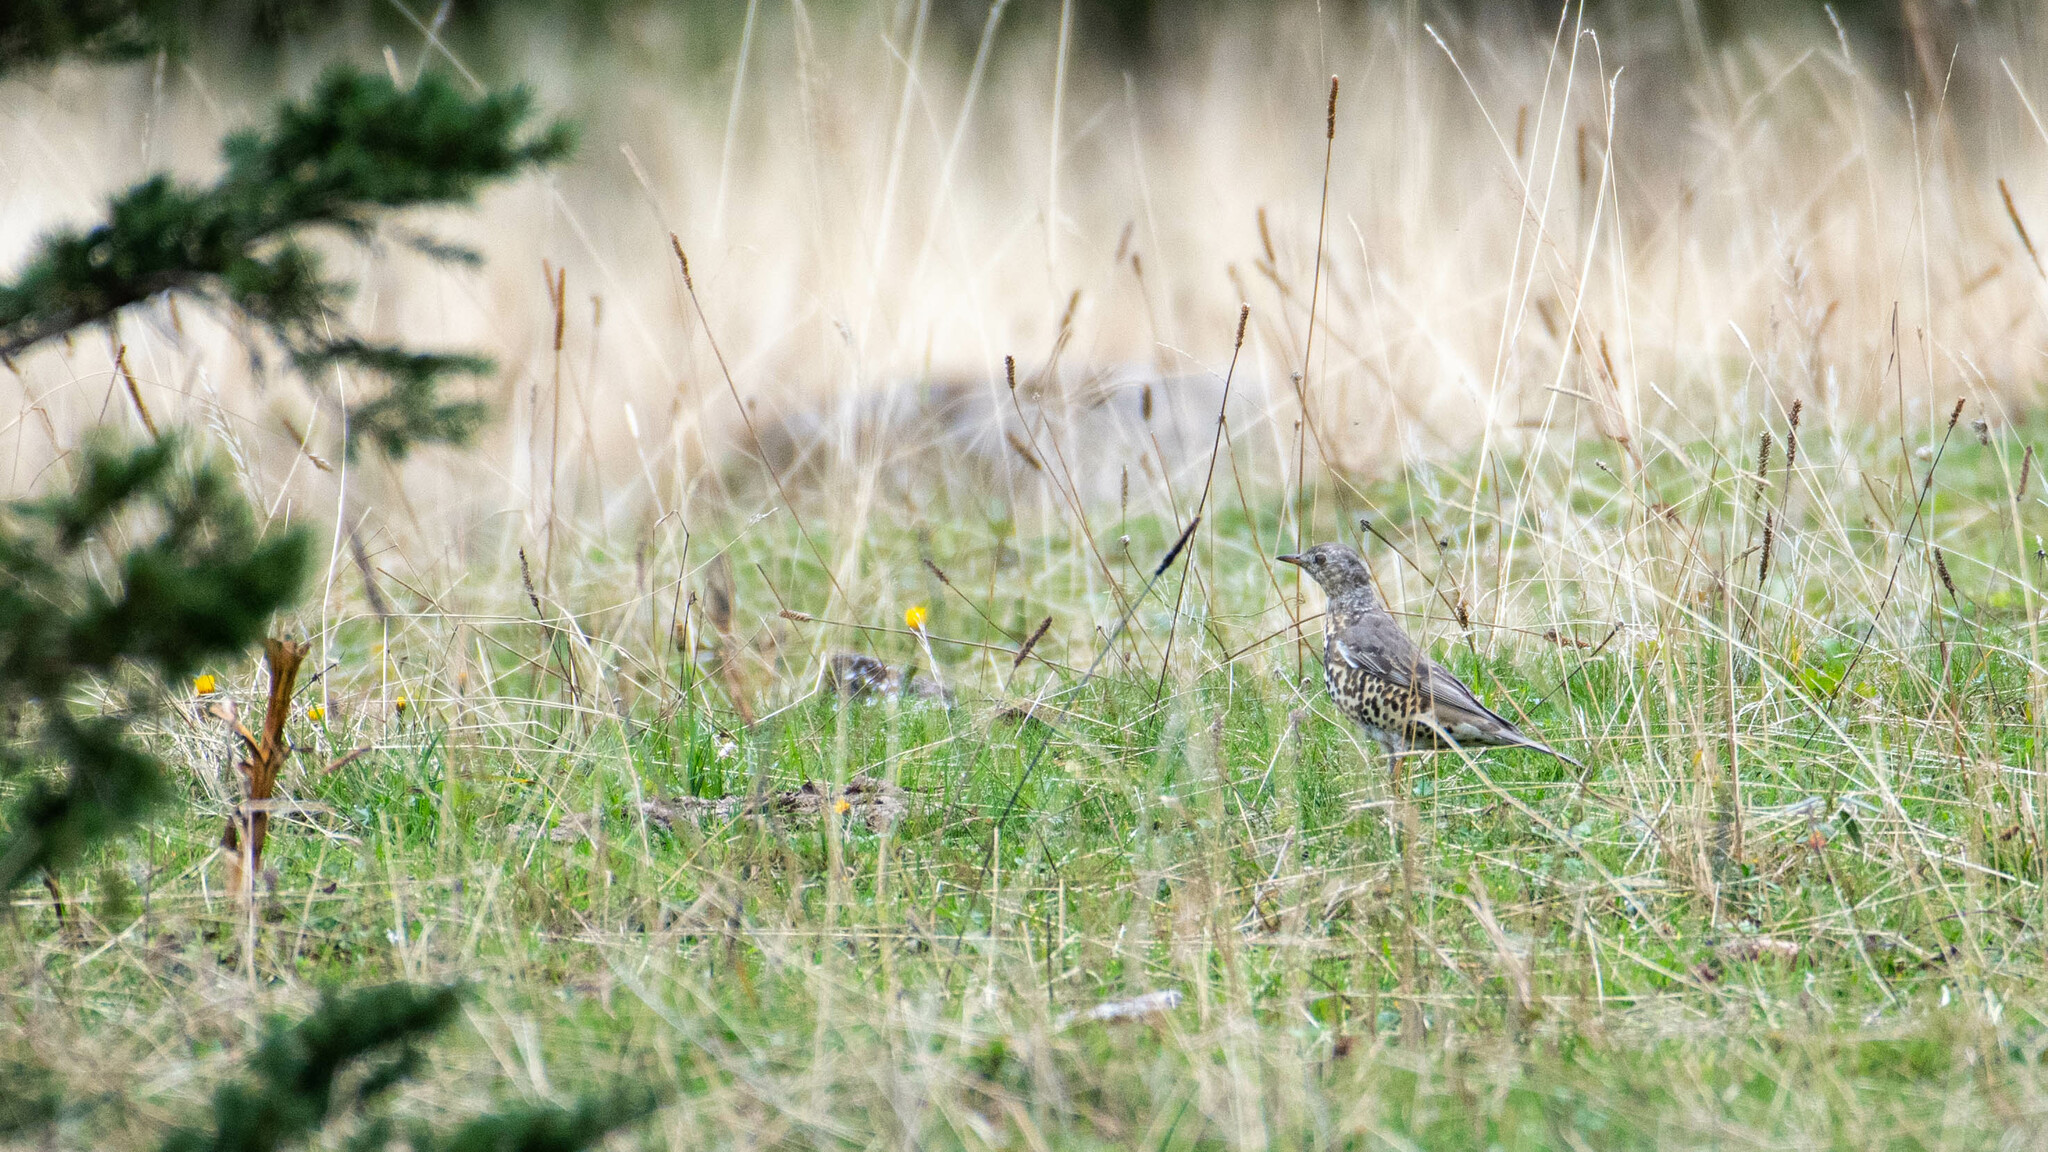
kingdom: Animalia
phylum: Chordata
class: Aves
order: Passeriformes
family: Turdidae
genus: Turdus
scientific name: Turdus viscivorus
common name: Mistle thrush
